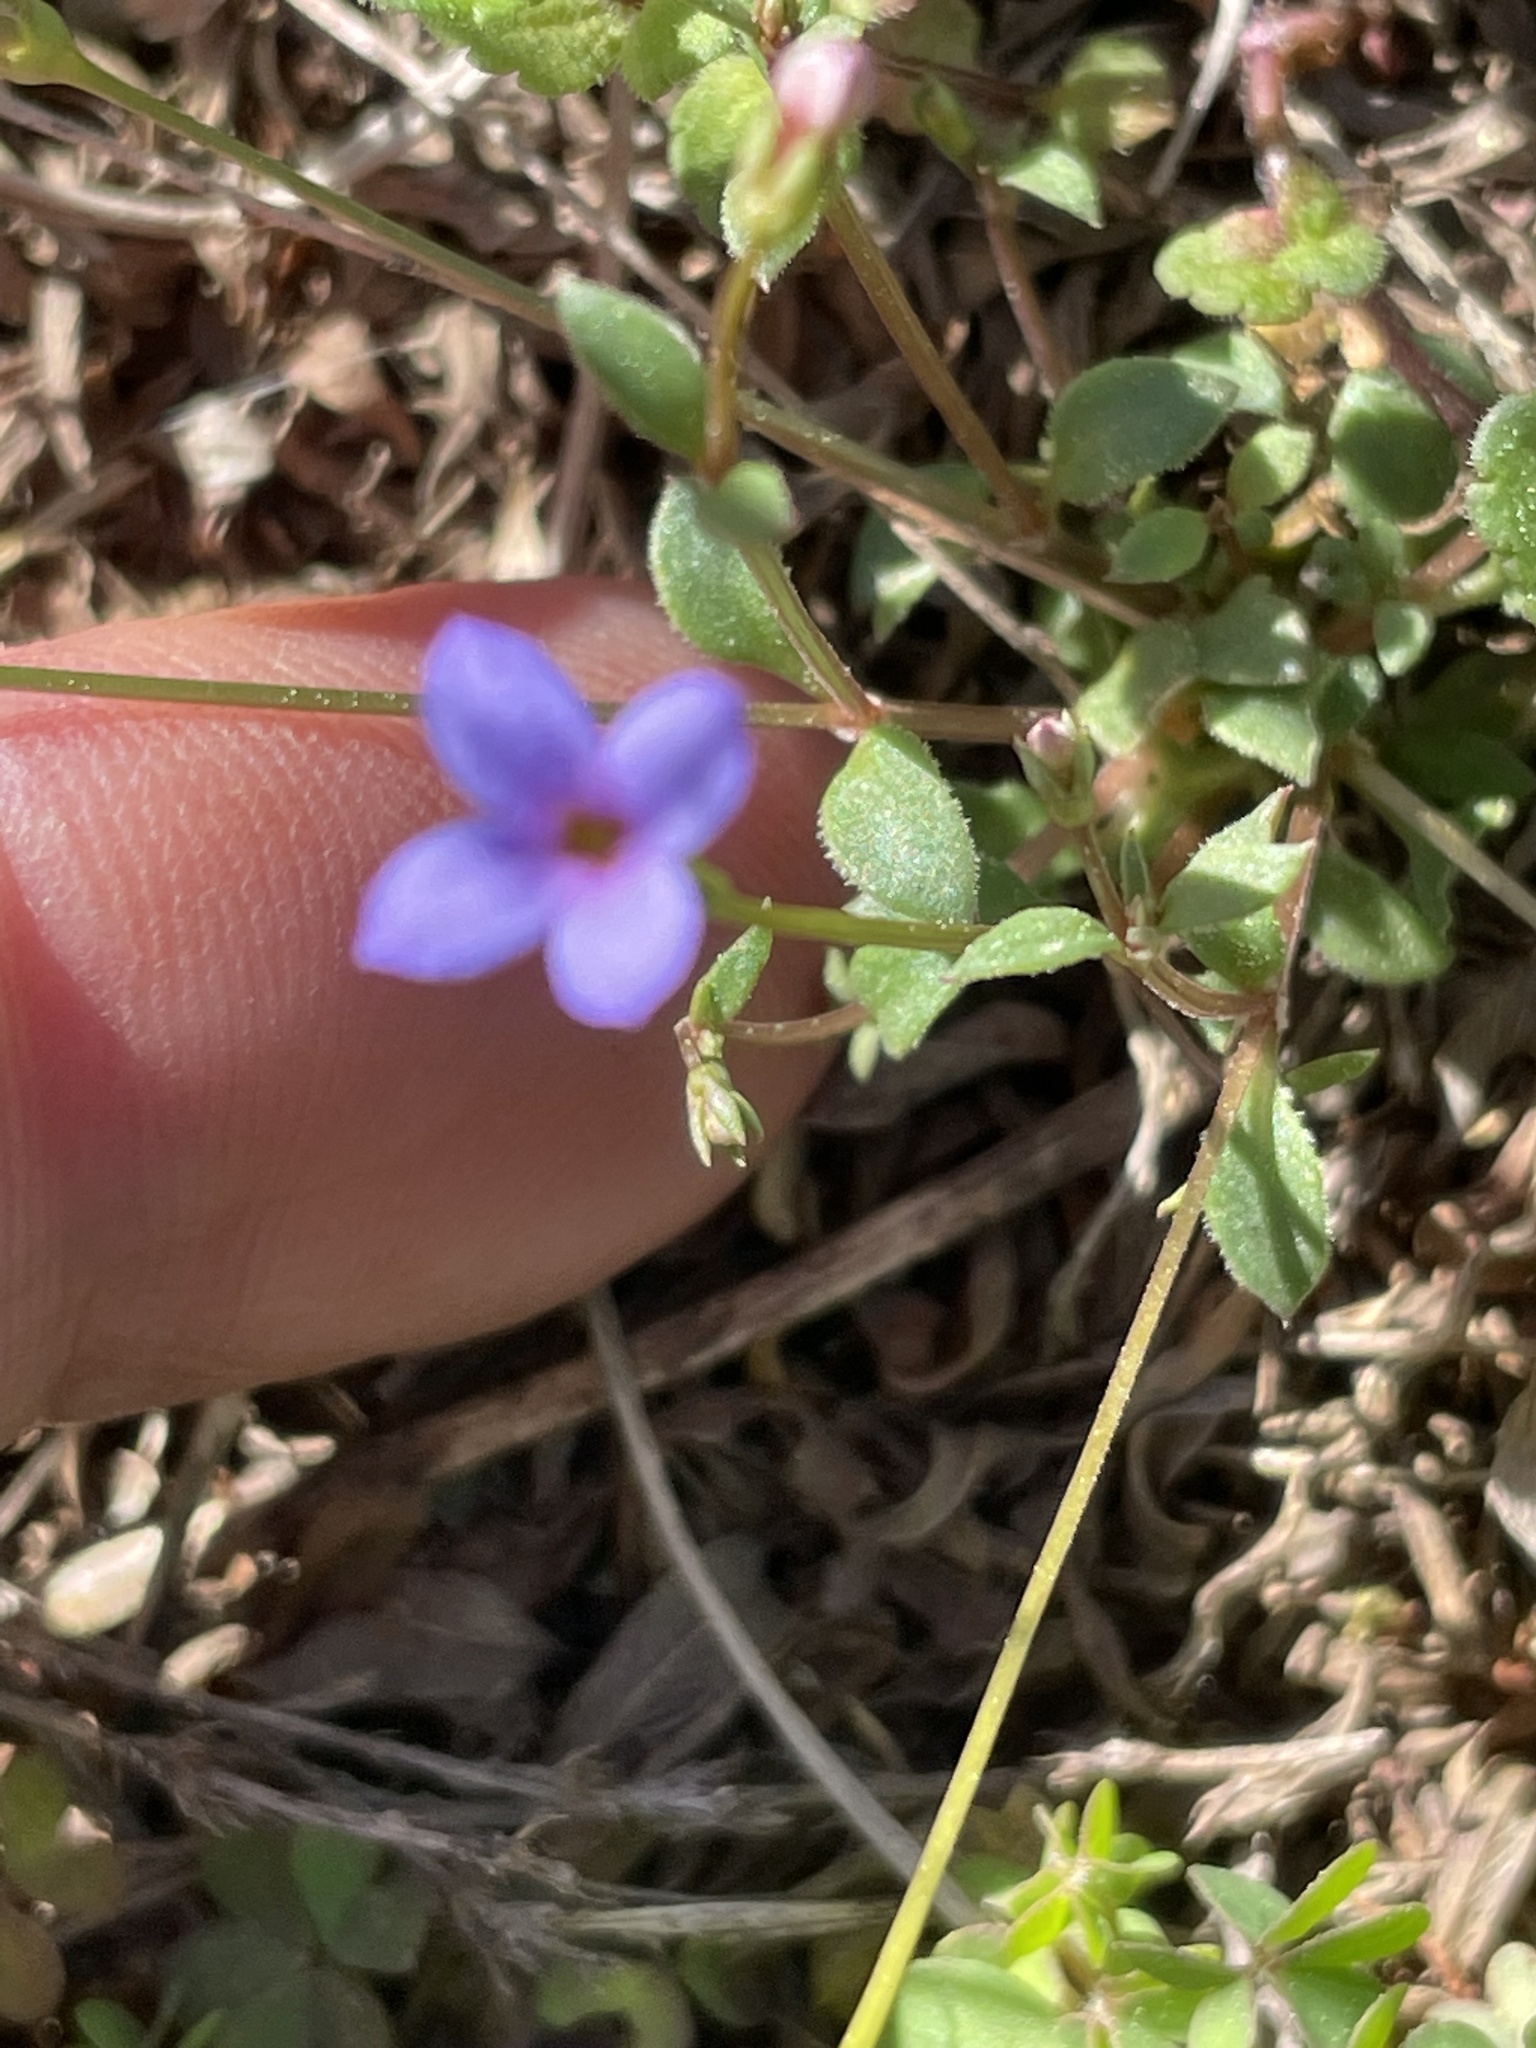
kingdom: Plantae
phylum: Tracheophyta
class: Magnoliopsida
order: Gentianales
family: Rubiaceae
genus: Houstonia
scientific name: Houstonia pusilla
